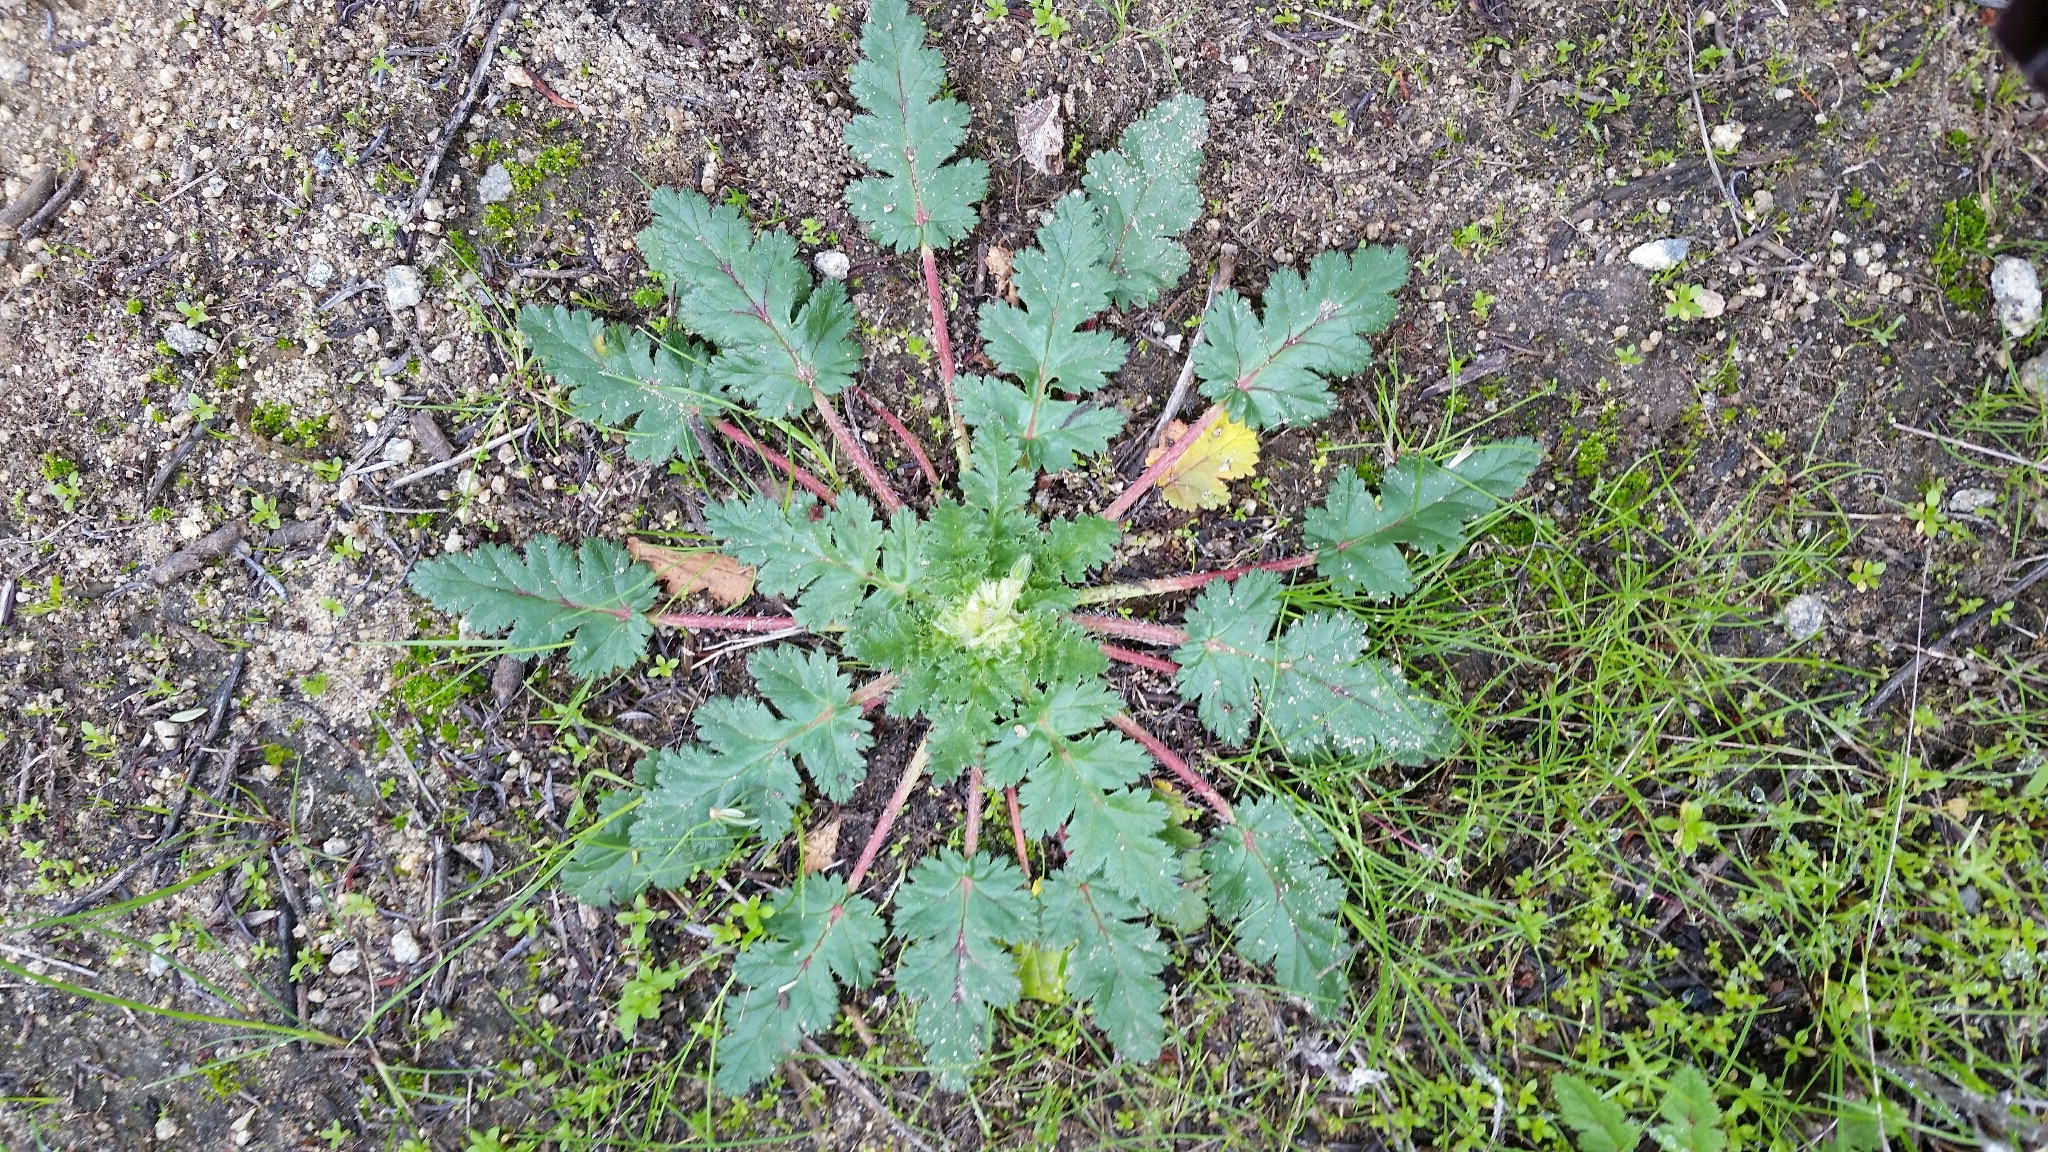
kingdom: Plantae
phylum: Tracheophyta
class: Magnoliopsida
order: Geraniales
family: Geraniaceae
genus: Erodium
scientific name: Erodium
